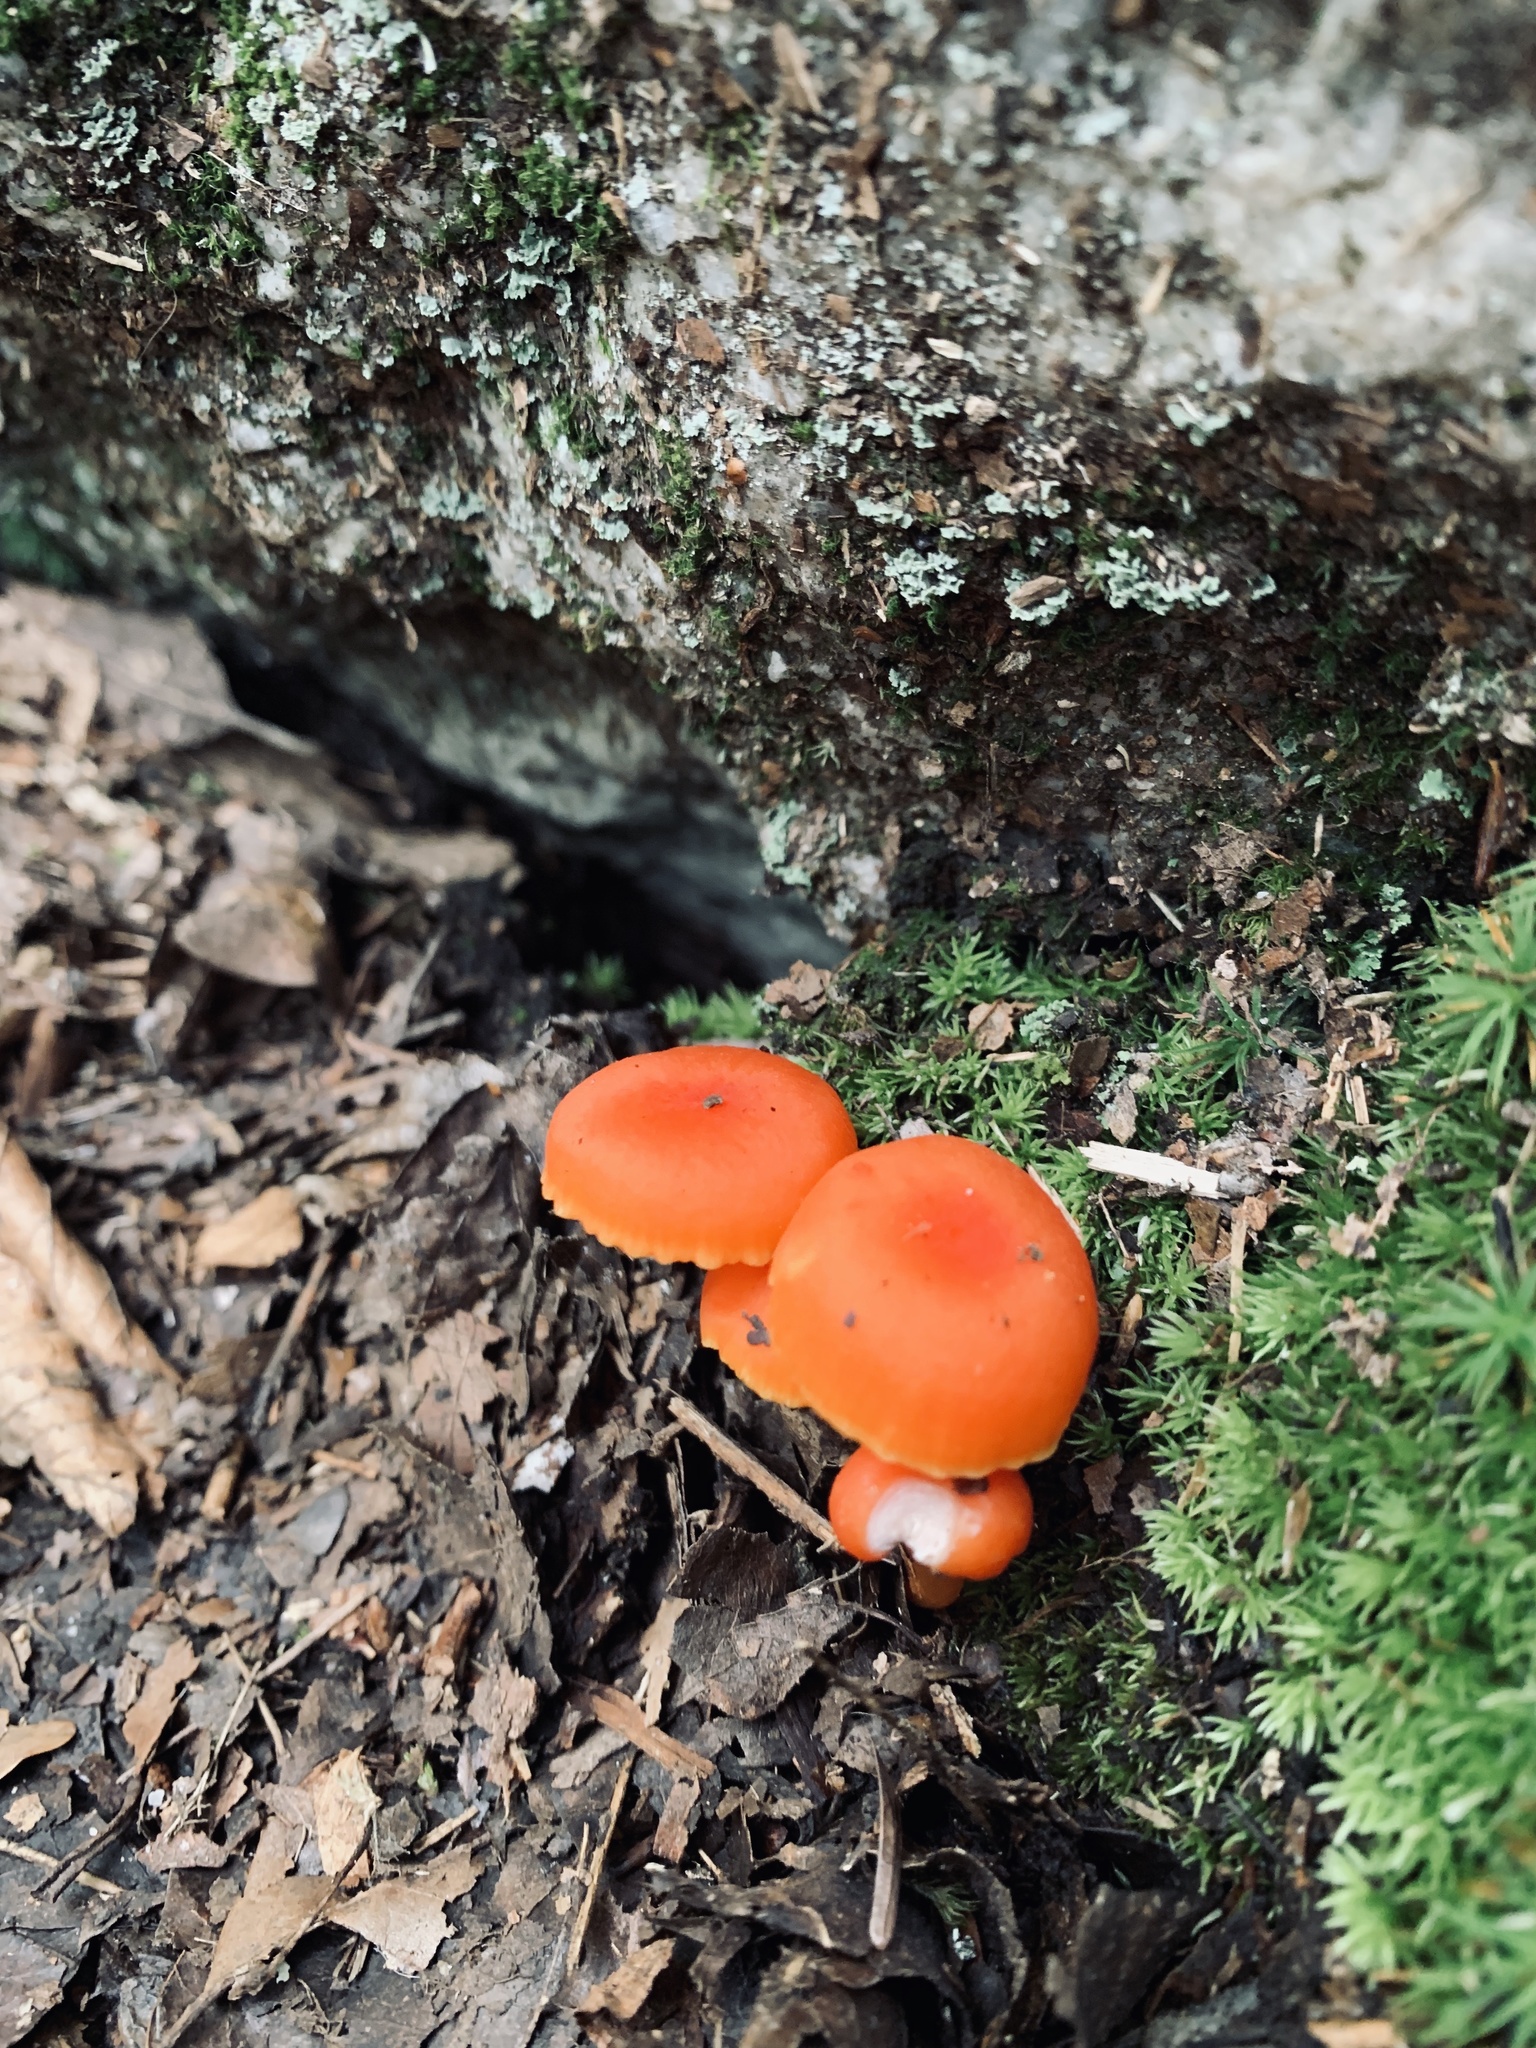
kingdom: Fungi
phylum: Basidiomycota
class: Agaricomycetes
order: Agaricales
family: Hygrophoraceae
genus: Hygrocybe
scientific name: Hygrocybe miniata
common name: Vermilion waxcap
